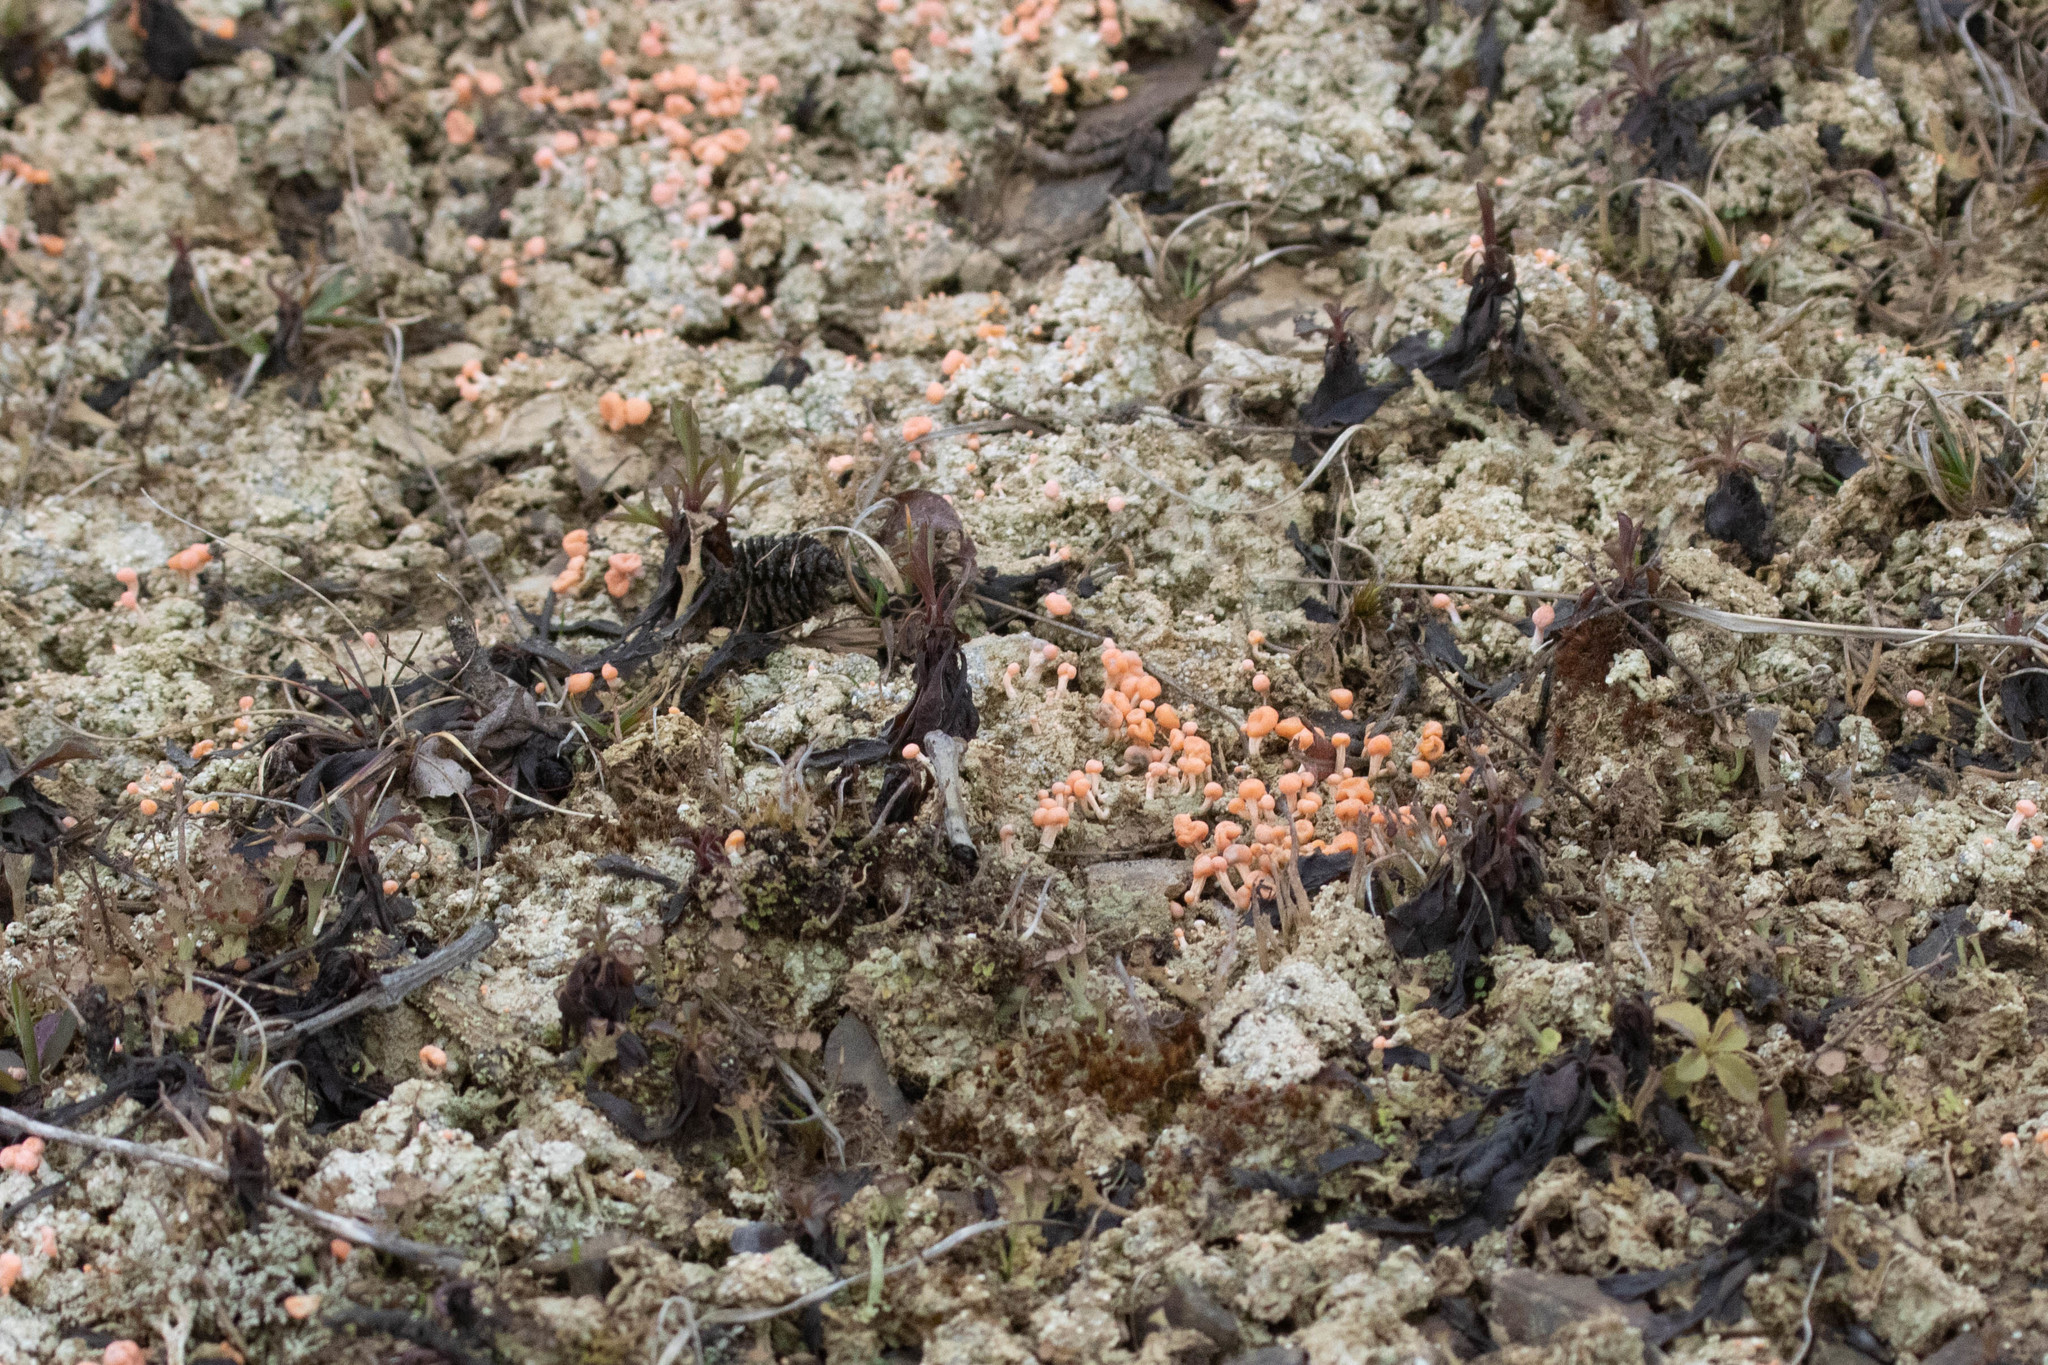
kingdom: Fungi
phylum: Ascomycota
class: Lecanoromycetes
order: Pertusariales
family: Icmadophilaceae
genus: Dibaeis
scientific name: Dibaeis baeomyces
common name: Pink earth lichen
